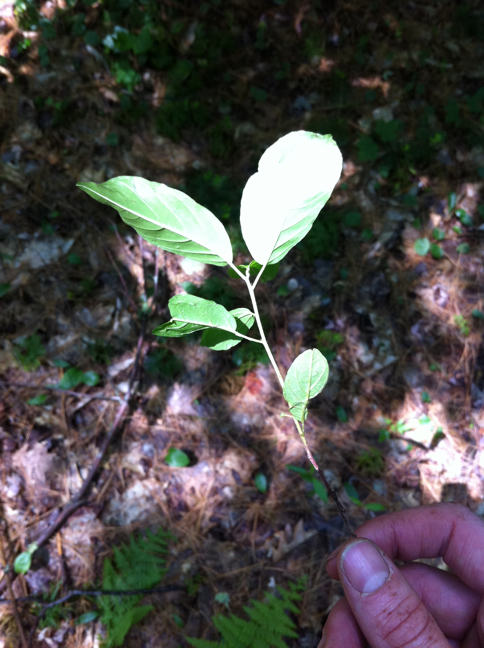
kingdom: Plantae
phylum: Tracheophyta
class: Magnoliopsida
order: Rosales
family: Rhamnaceae
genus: Frangula
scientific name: Frangula alnus
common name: Alder buckthorn
